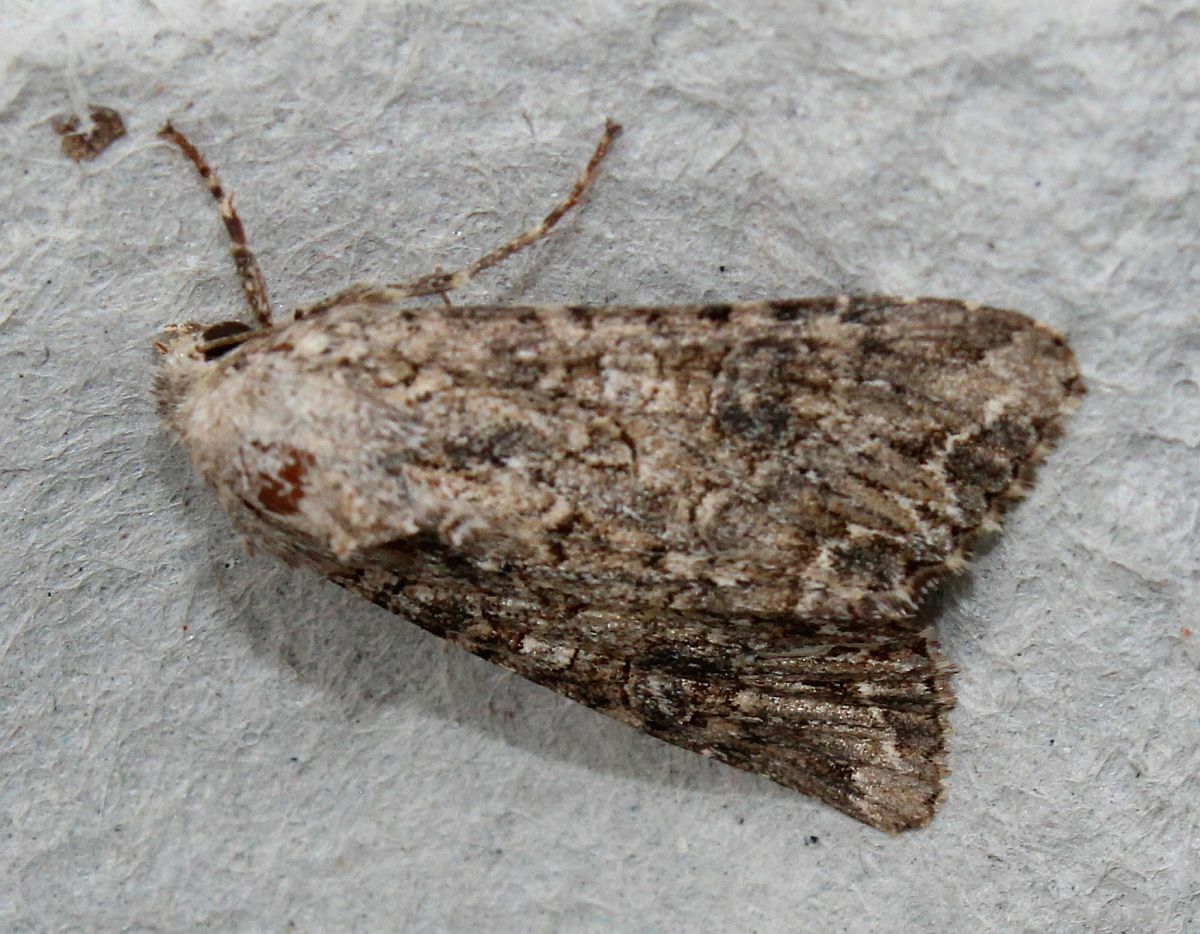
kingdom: Animalia
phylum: Arthropoda
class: Insecta
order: Lepidoptera
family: Noctuidae
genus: Anarta
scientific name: Anarta trifolii
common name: Clover cutworm moth
